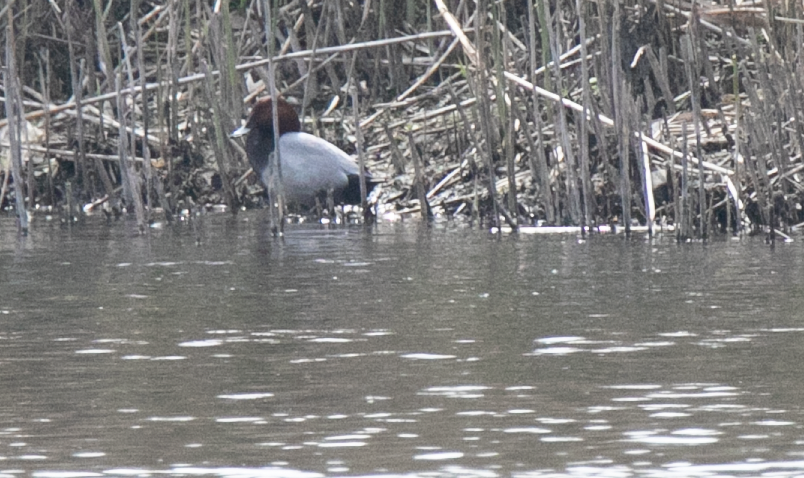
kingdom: Animalia
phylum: Chordata
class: Aves
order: Anseriformes
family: Anatidae
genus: Aythya
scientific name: Aythya ferina
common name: Common pochard
